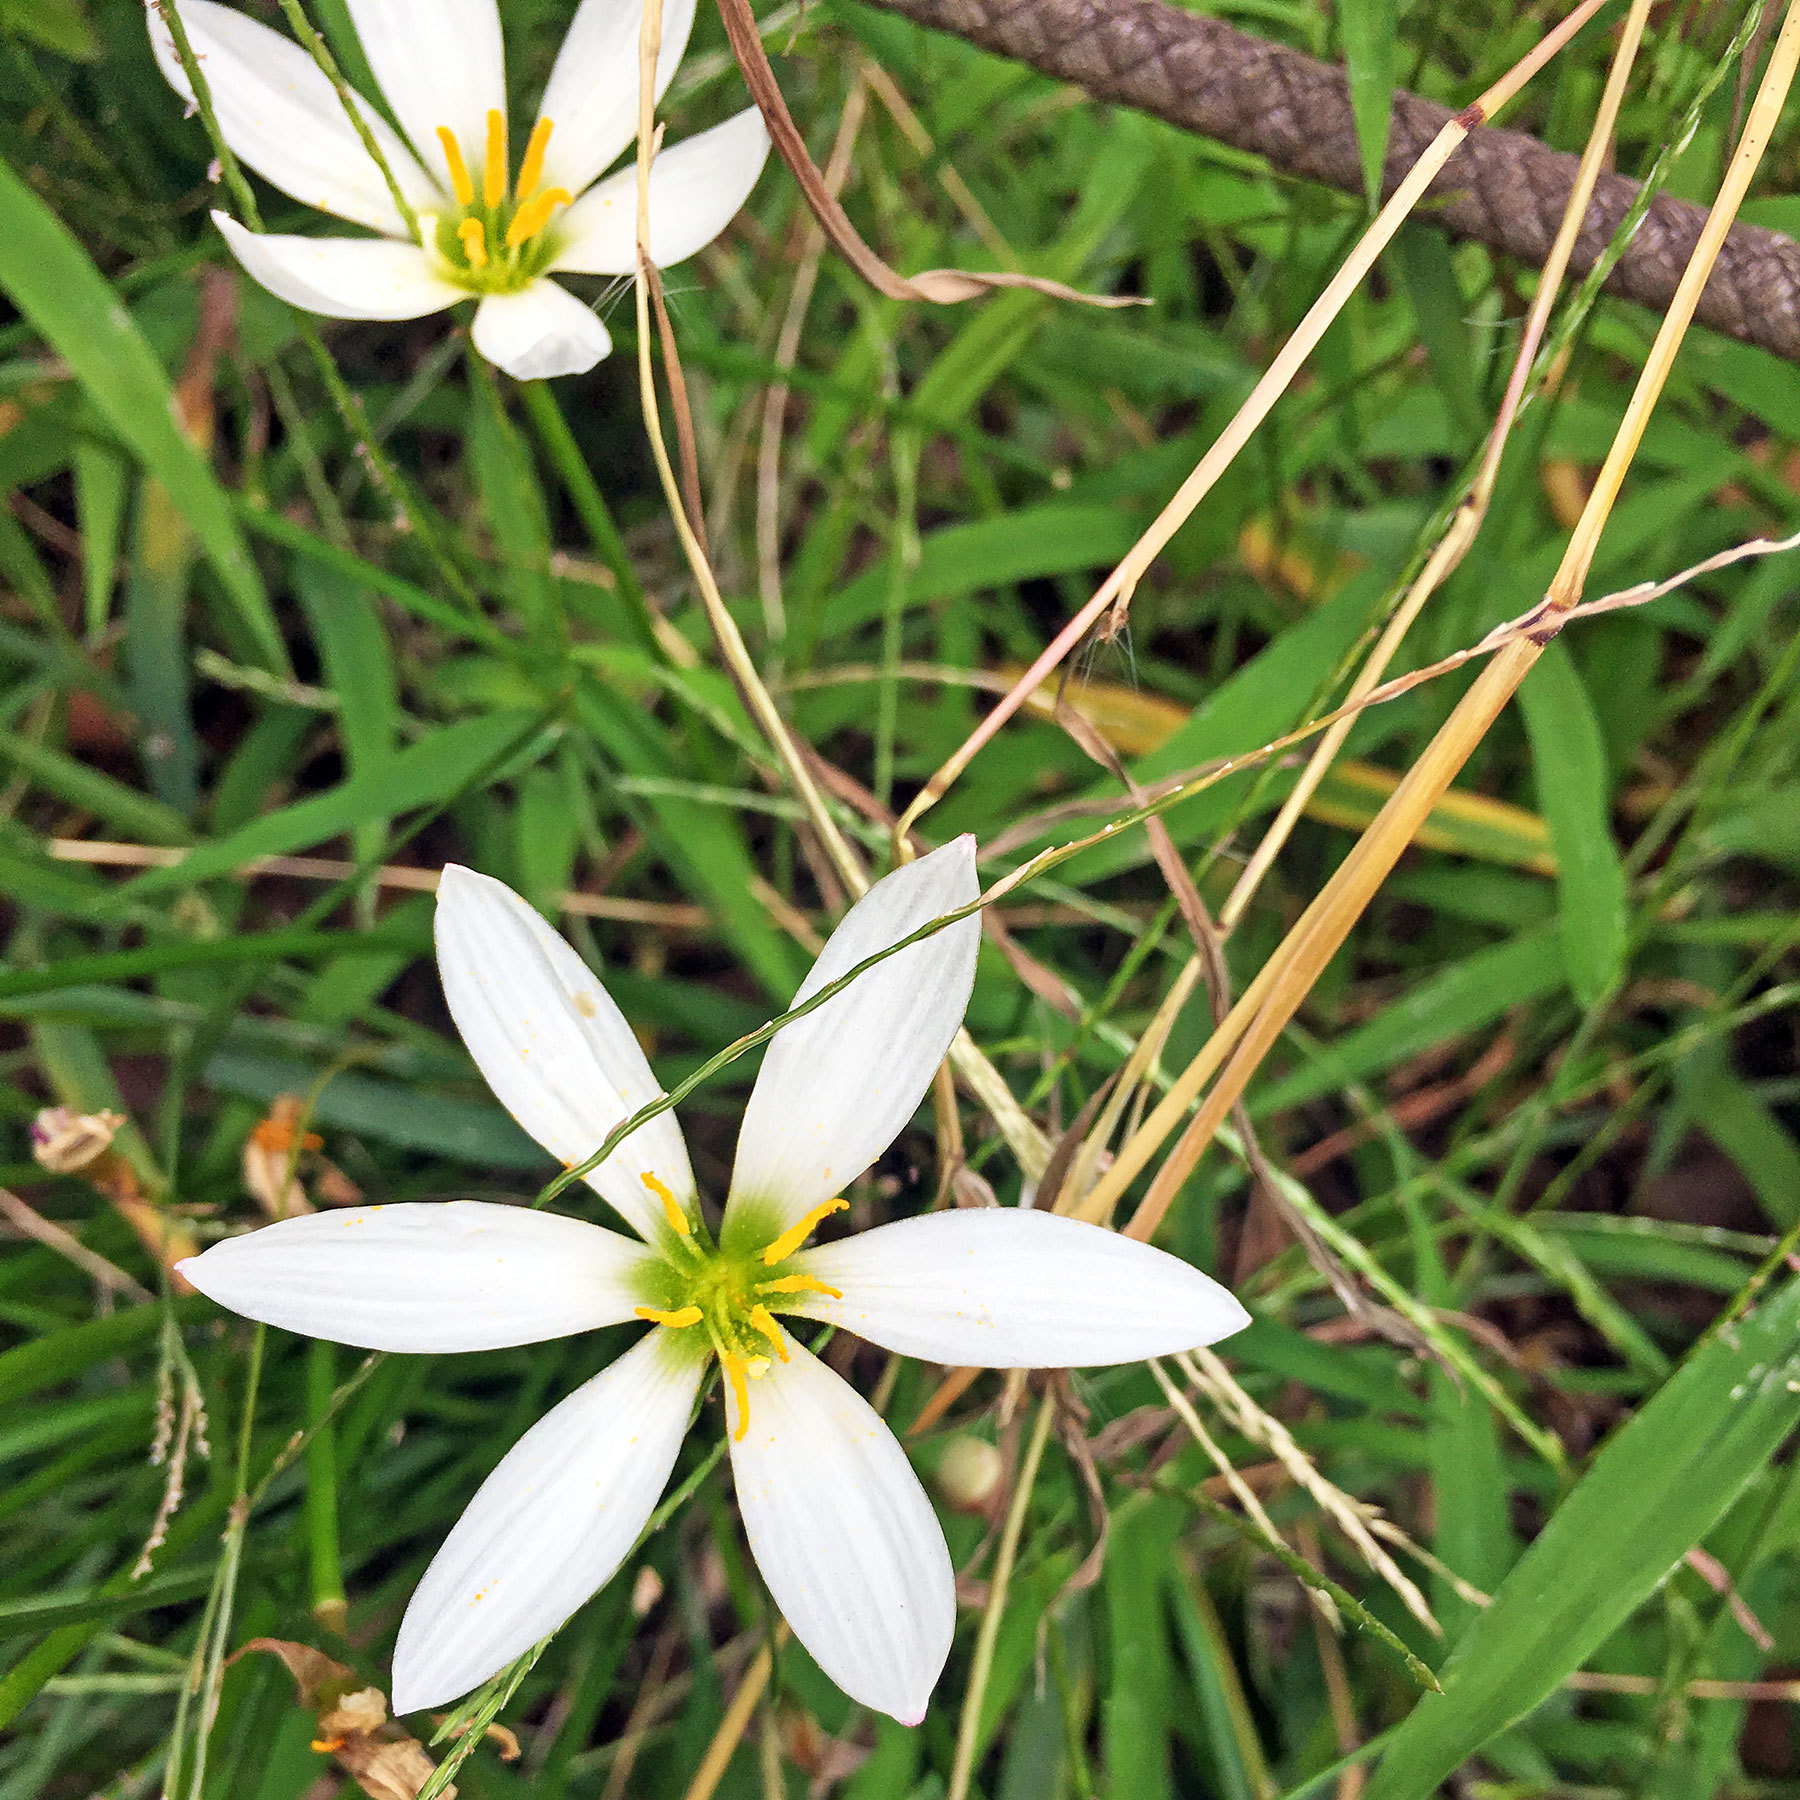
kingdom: Plantae
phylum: Tracheophyta
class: Liliopsida
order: Asparagales
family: Amaryllidaceae
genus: Zephyranthes
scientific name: Zephyranthes candida
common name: Autumn zephyrlily
